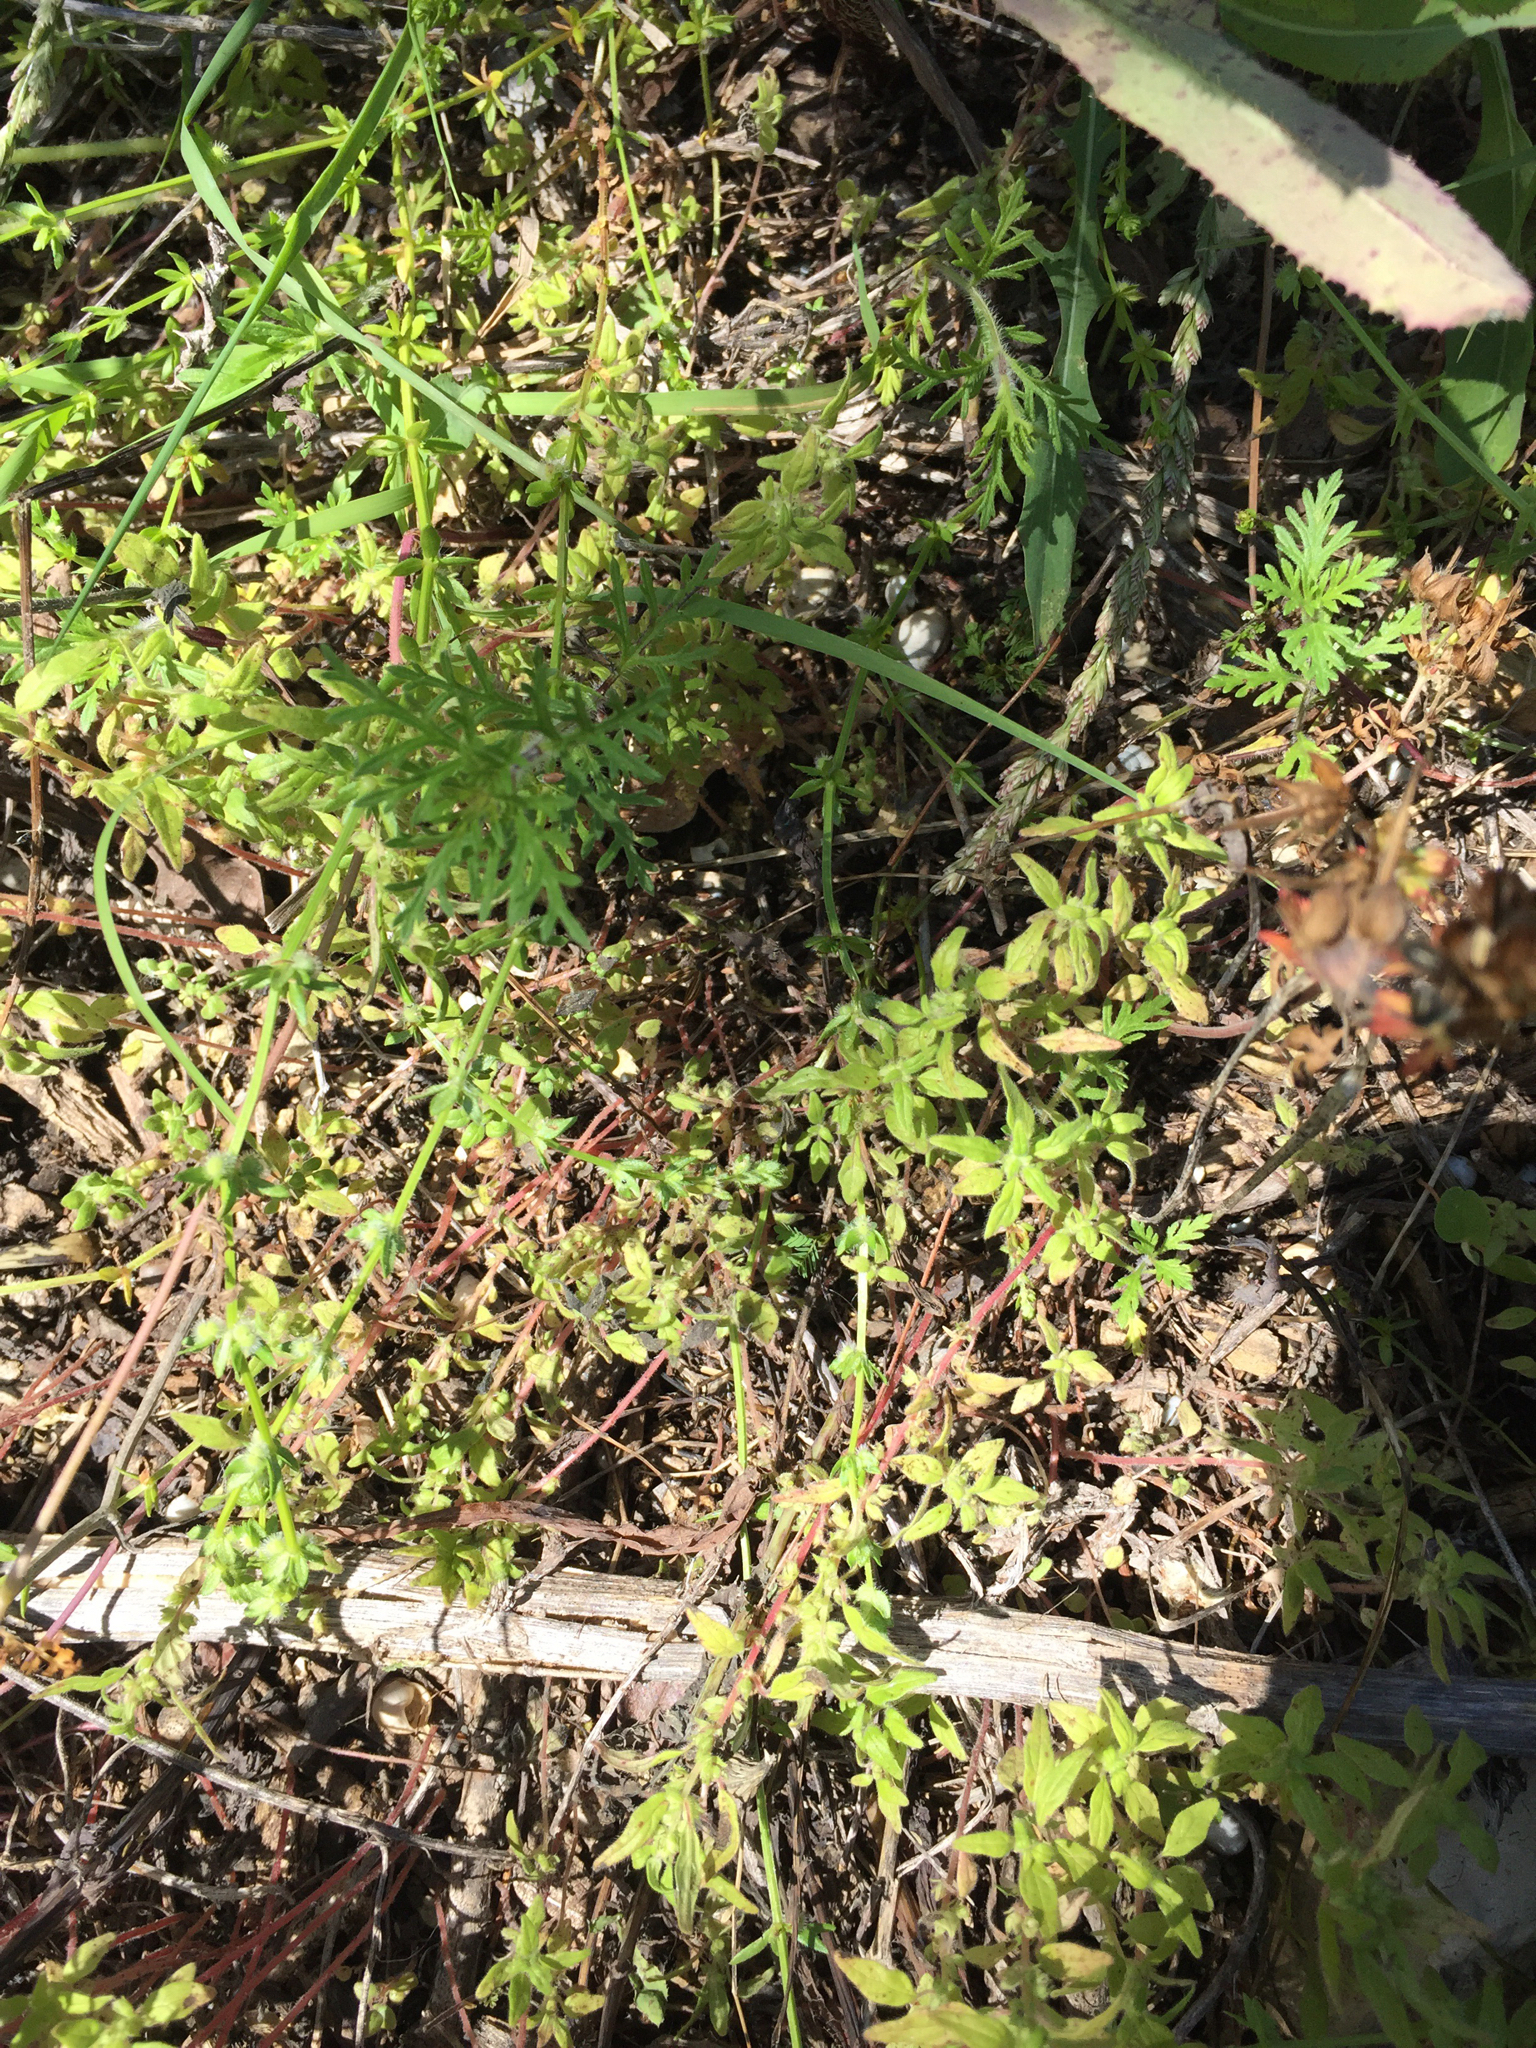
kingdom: Plantae
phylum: Tracheophyta
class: Magnoliopsida
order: Rosales
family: Urticaceae
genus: Parietaria
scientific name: Parietaria pensylvanica
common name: Pennsylvania pellitory
